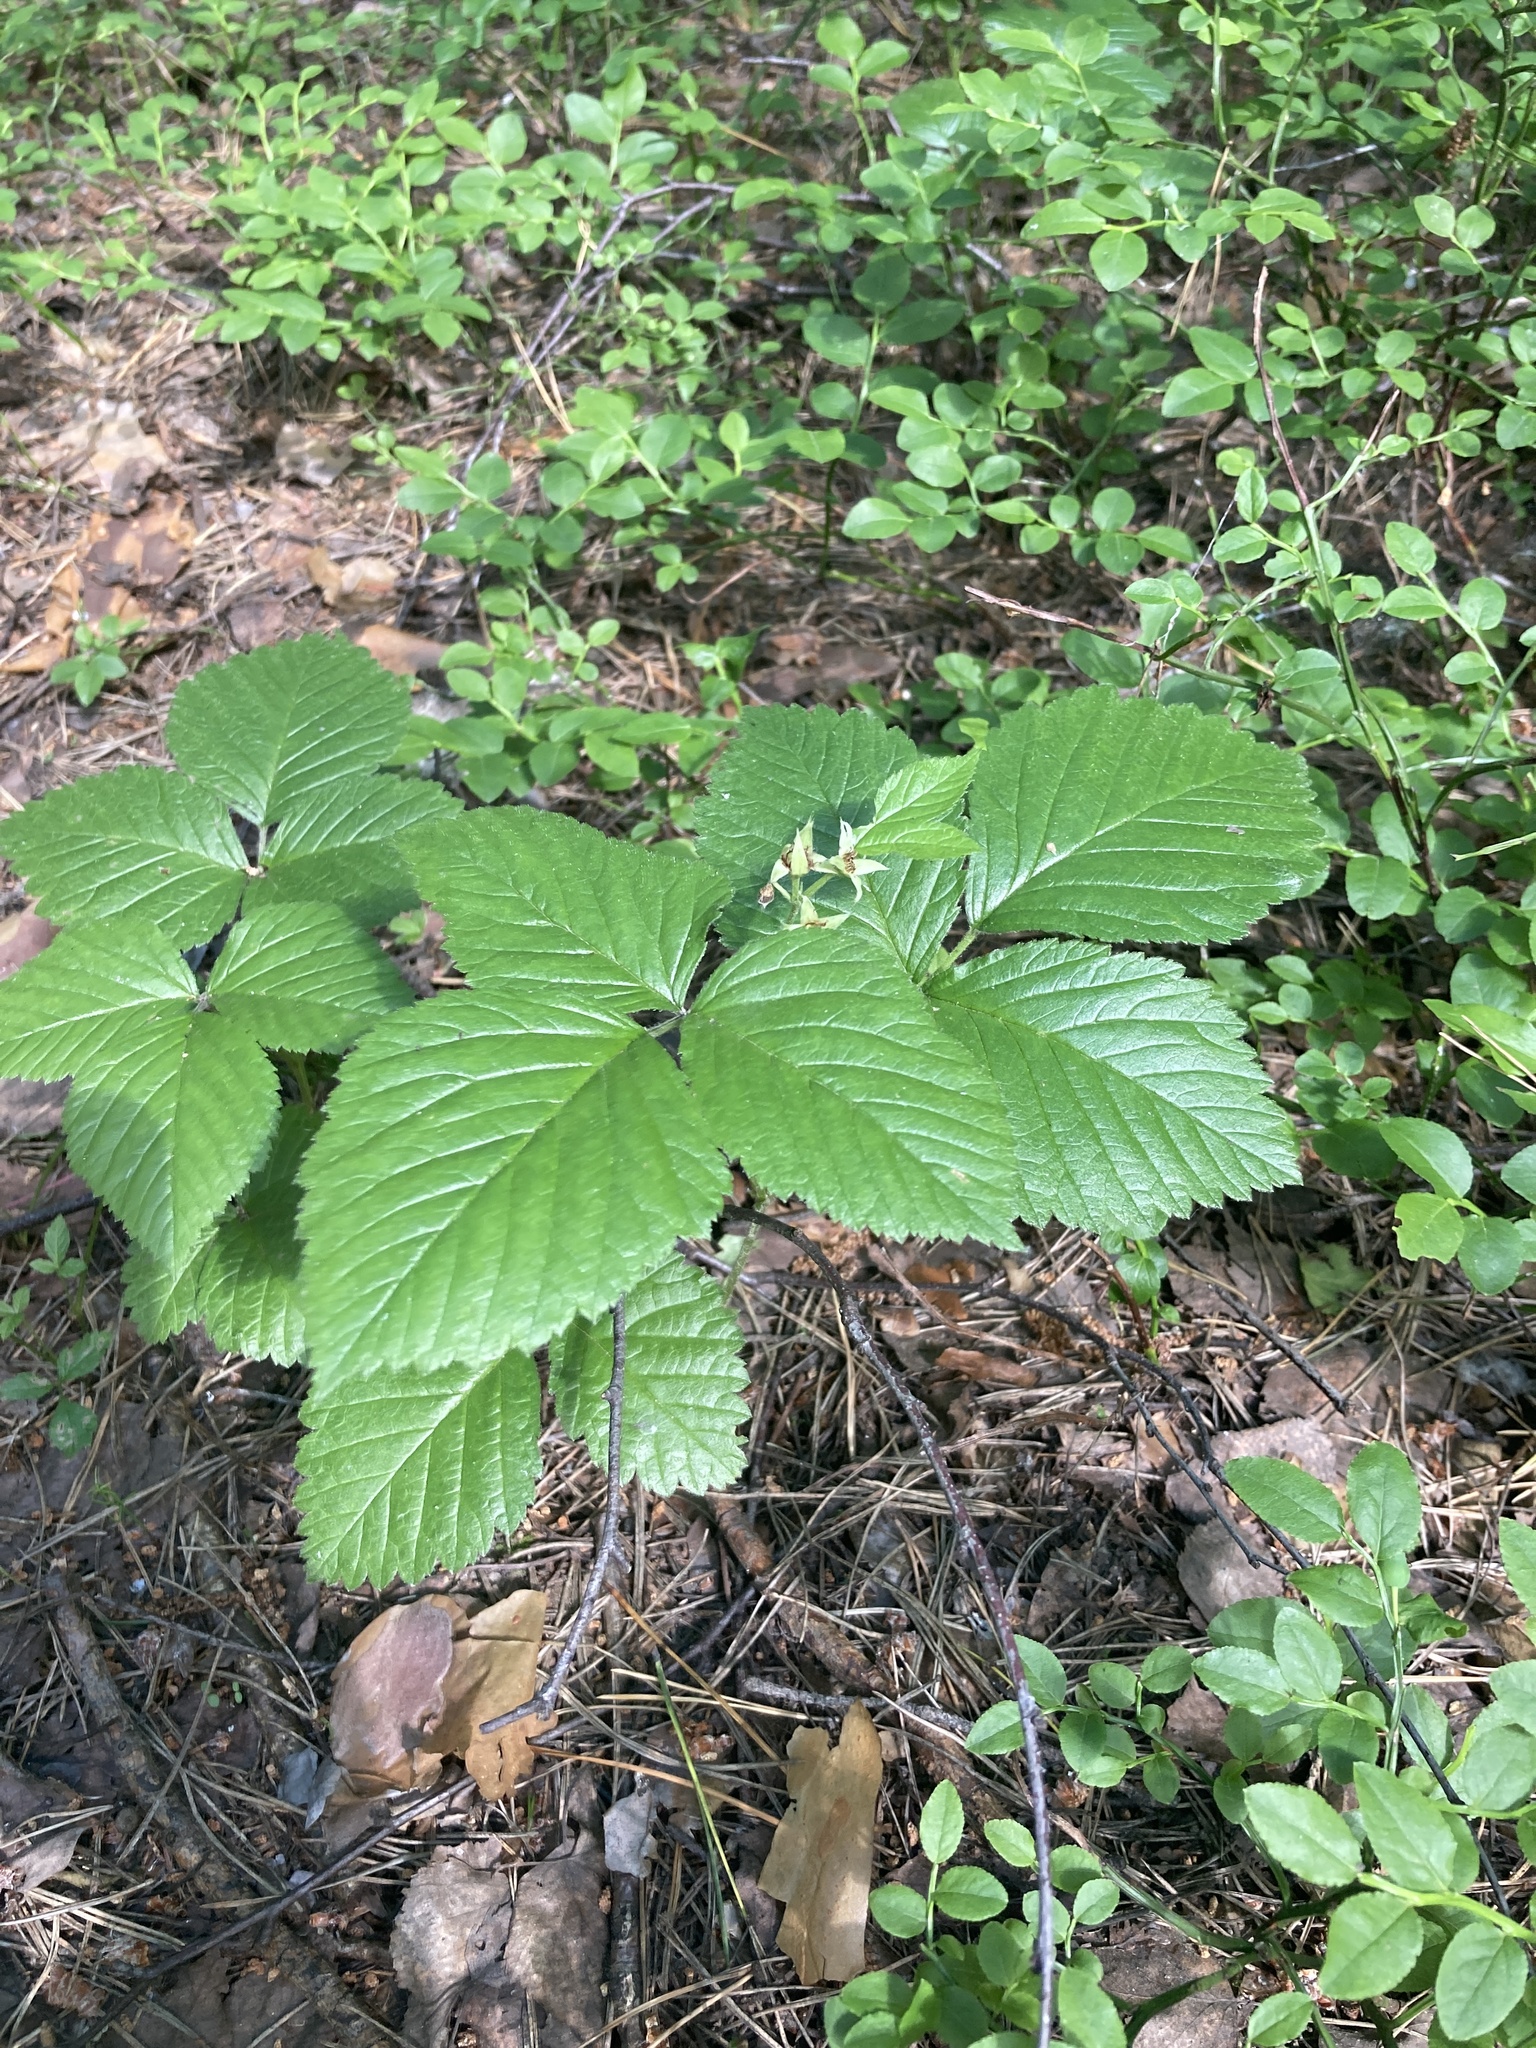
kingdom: Plantae
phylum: Tracheophyta
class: Magnoliopsida
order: Rosales
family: Rosaceae
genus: Rubus
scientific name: Rubus saxatilis
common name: Stone bramble
